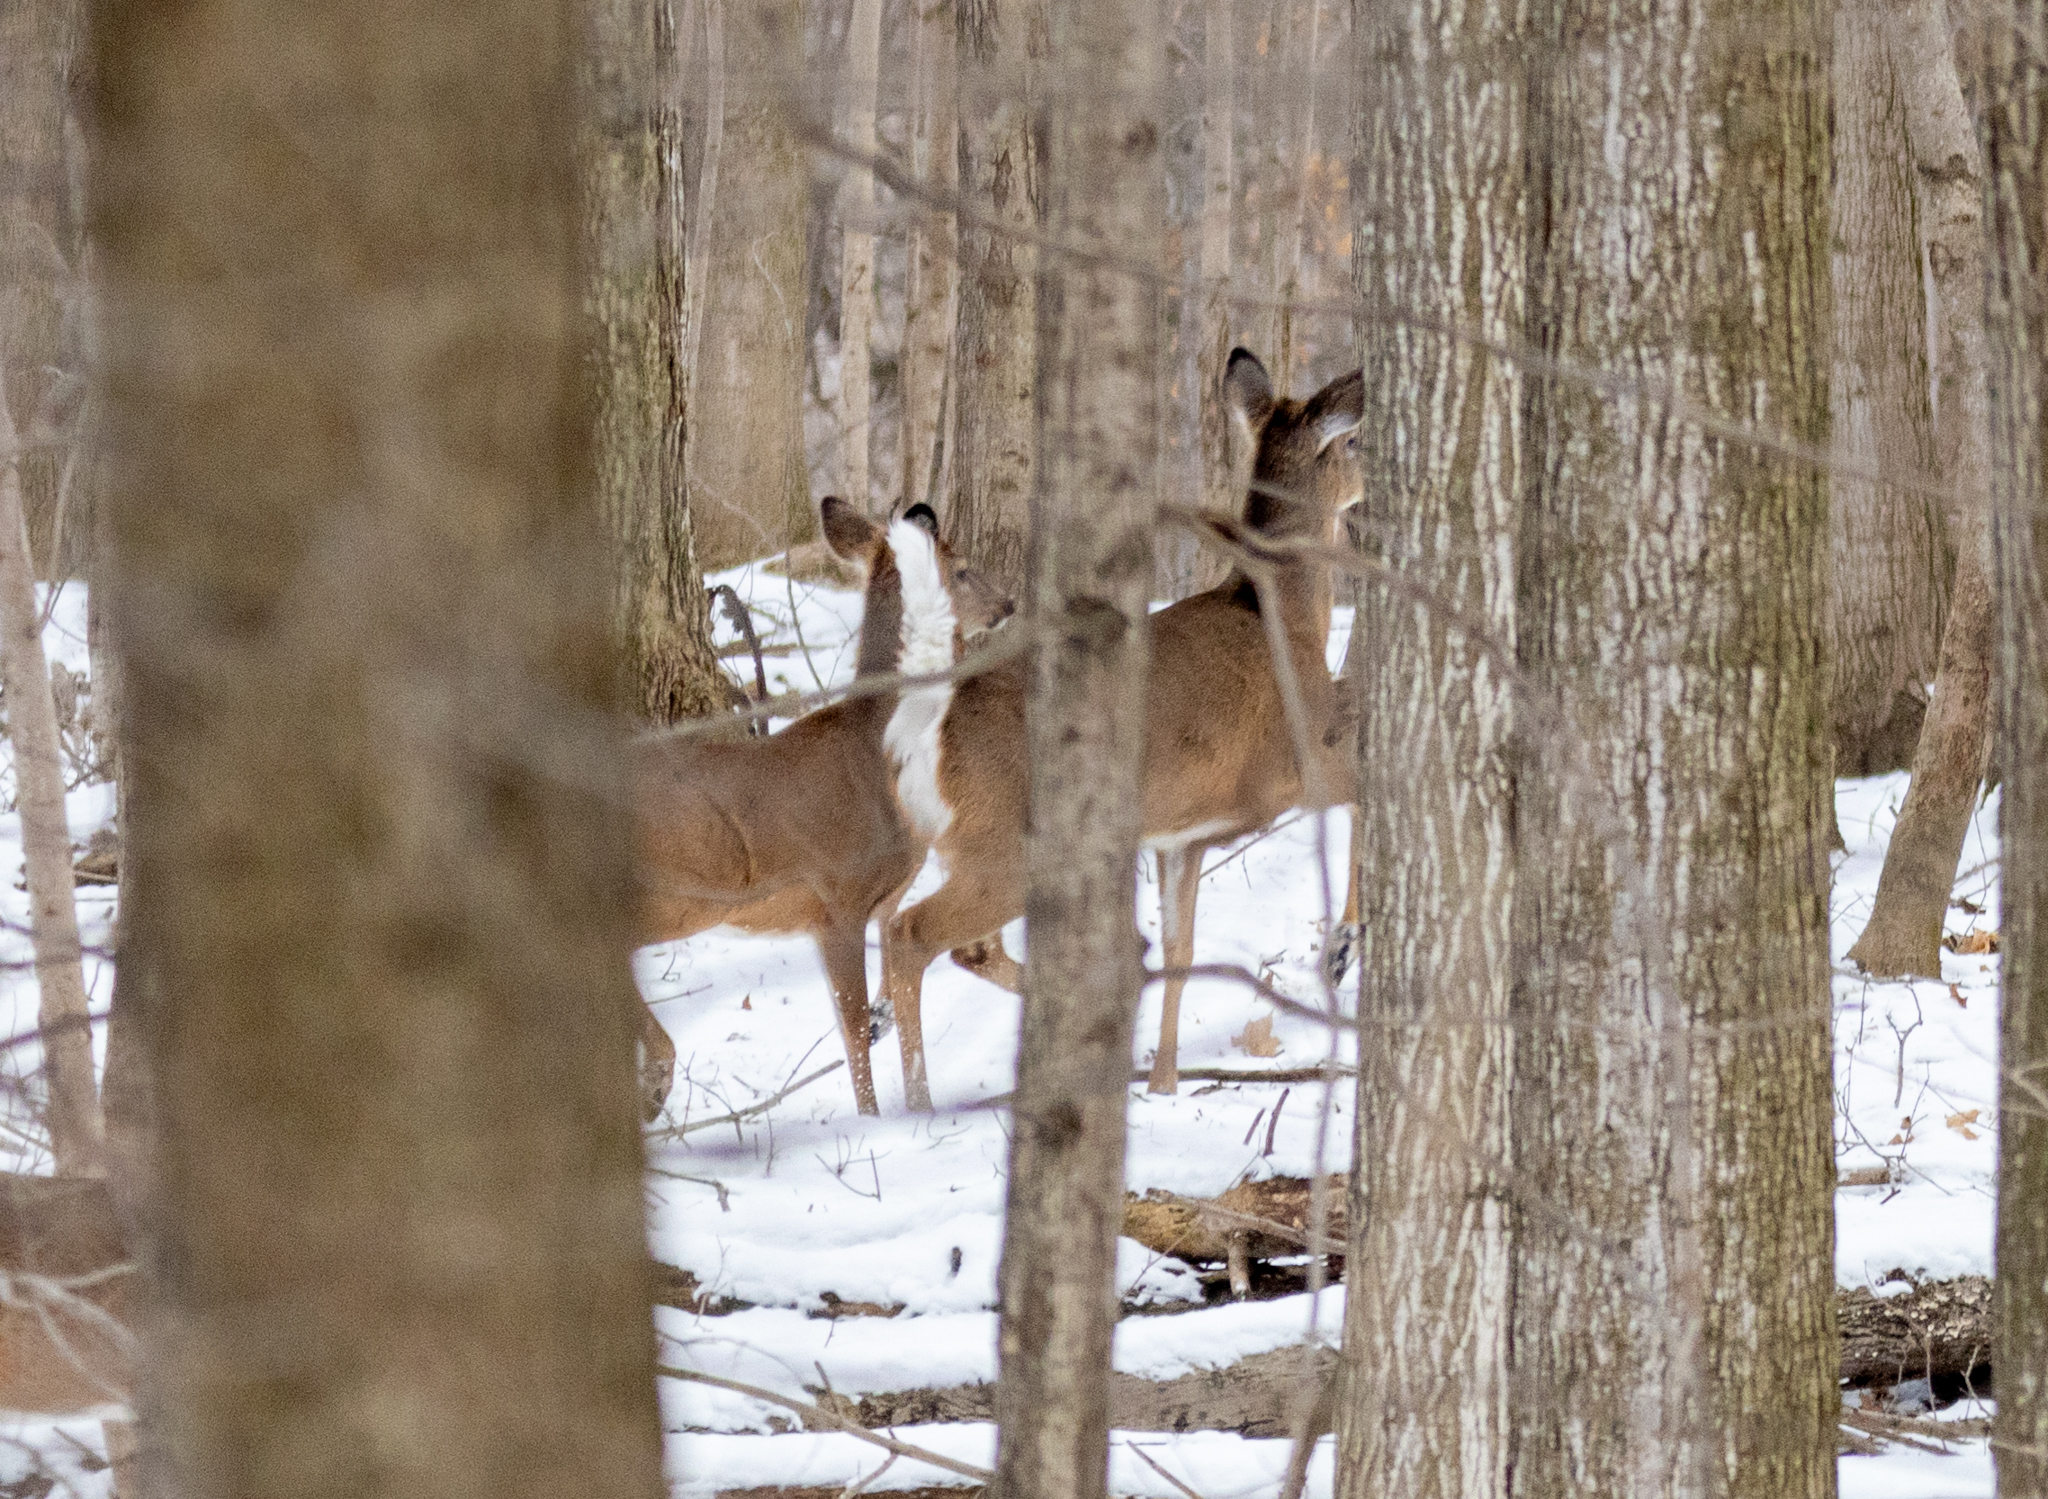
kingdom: Animalia
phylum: Chordata
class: Mammalia
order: Artiodactyla
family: Cervidae
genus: Odocoileus
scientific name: Odocoileus virginianus
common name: White-tailed deer
